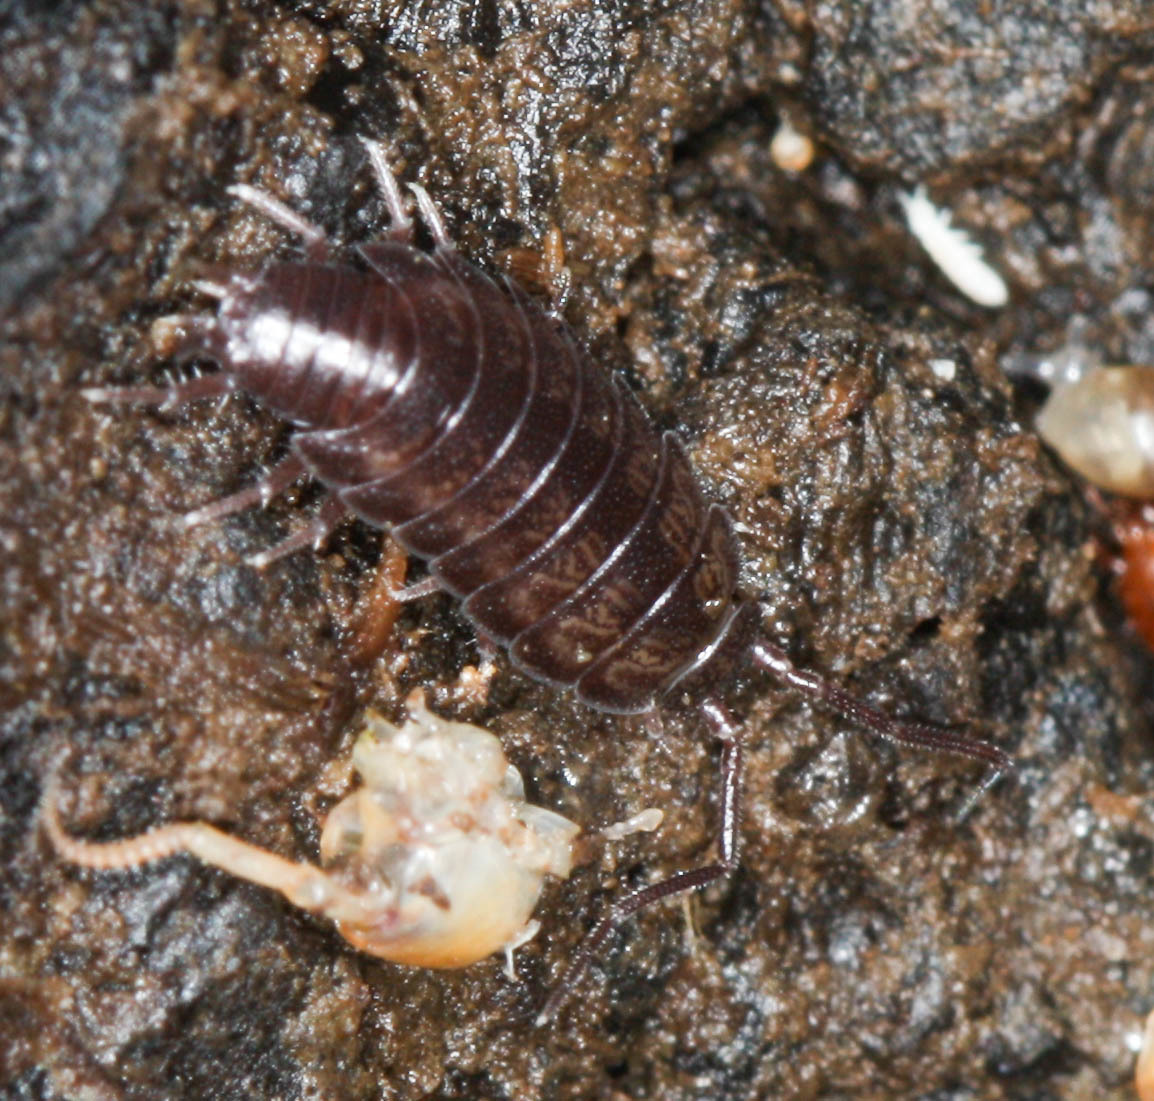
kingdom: Animalia
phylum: Arthropoda
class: Malacostraca
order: Isopoda
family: Halophilosciidae
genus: Littorophiloscia
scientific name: Littorophiloscia richardsonae
